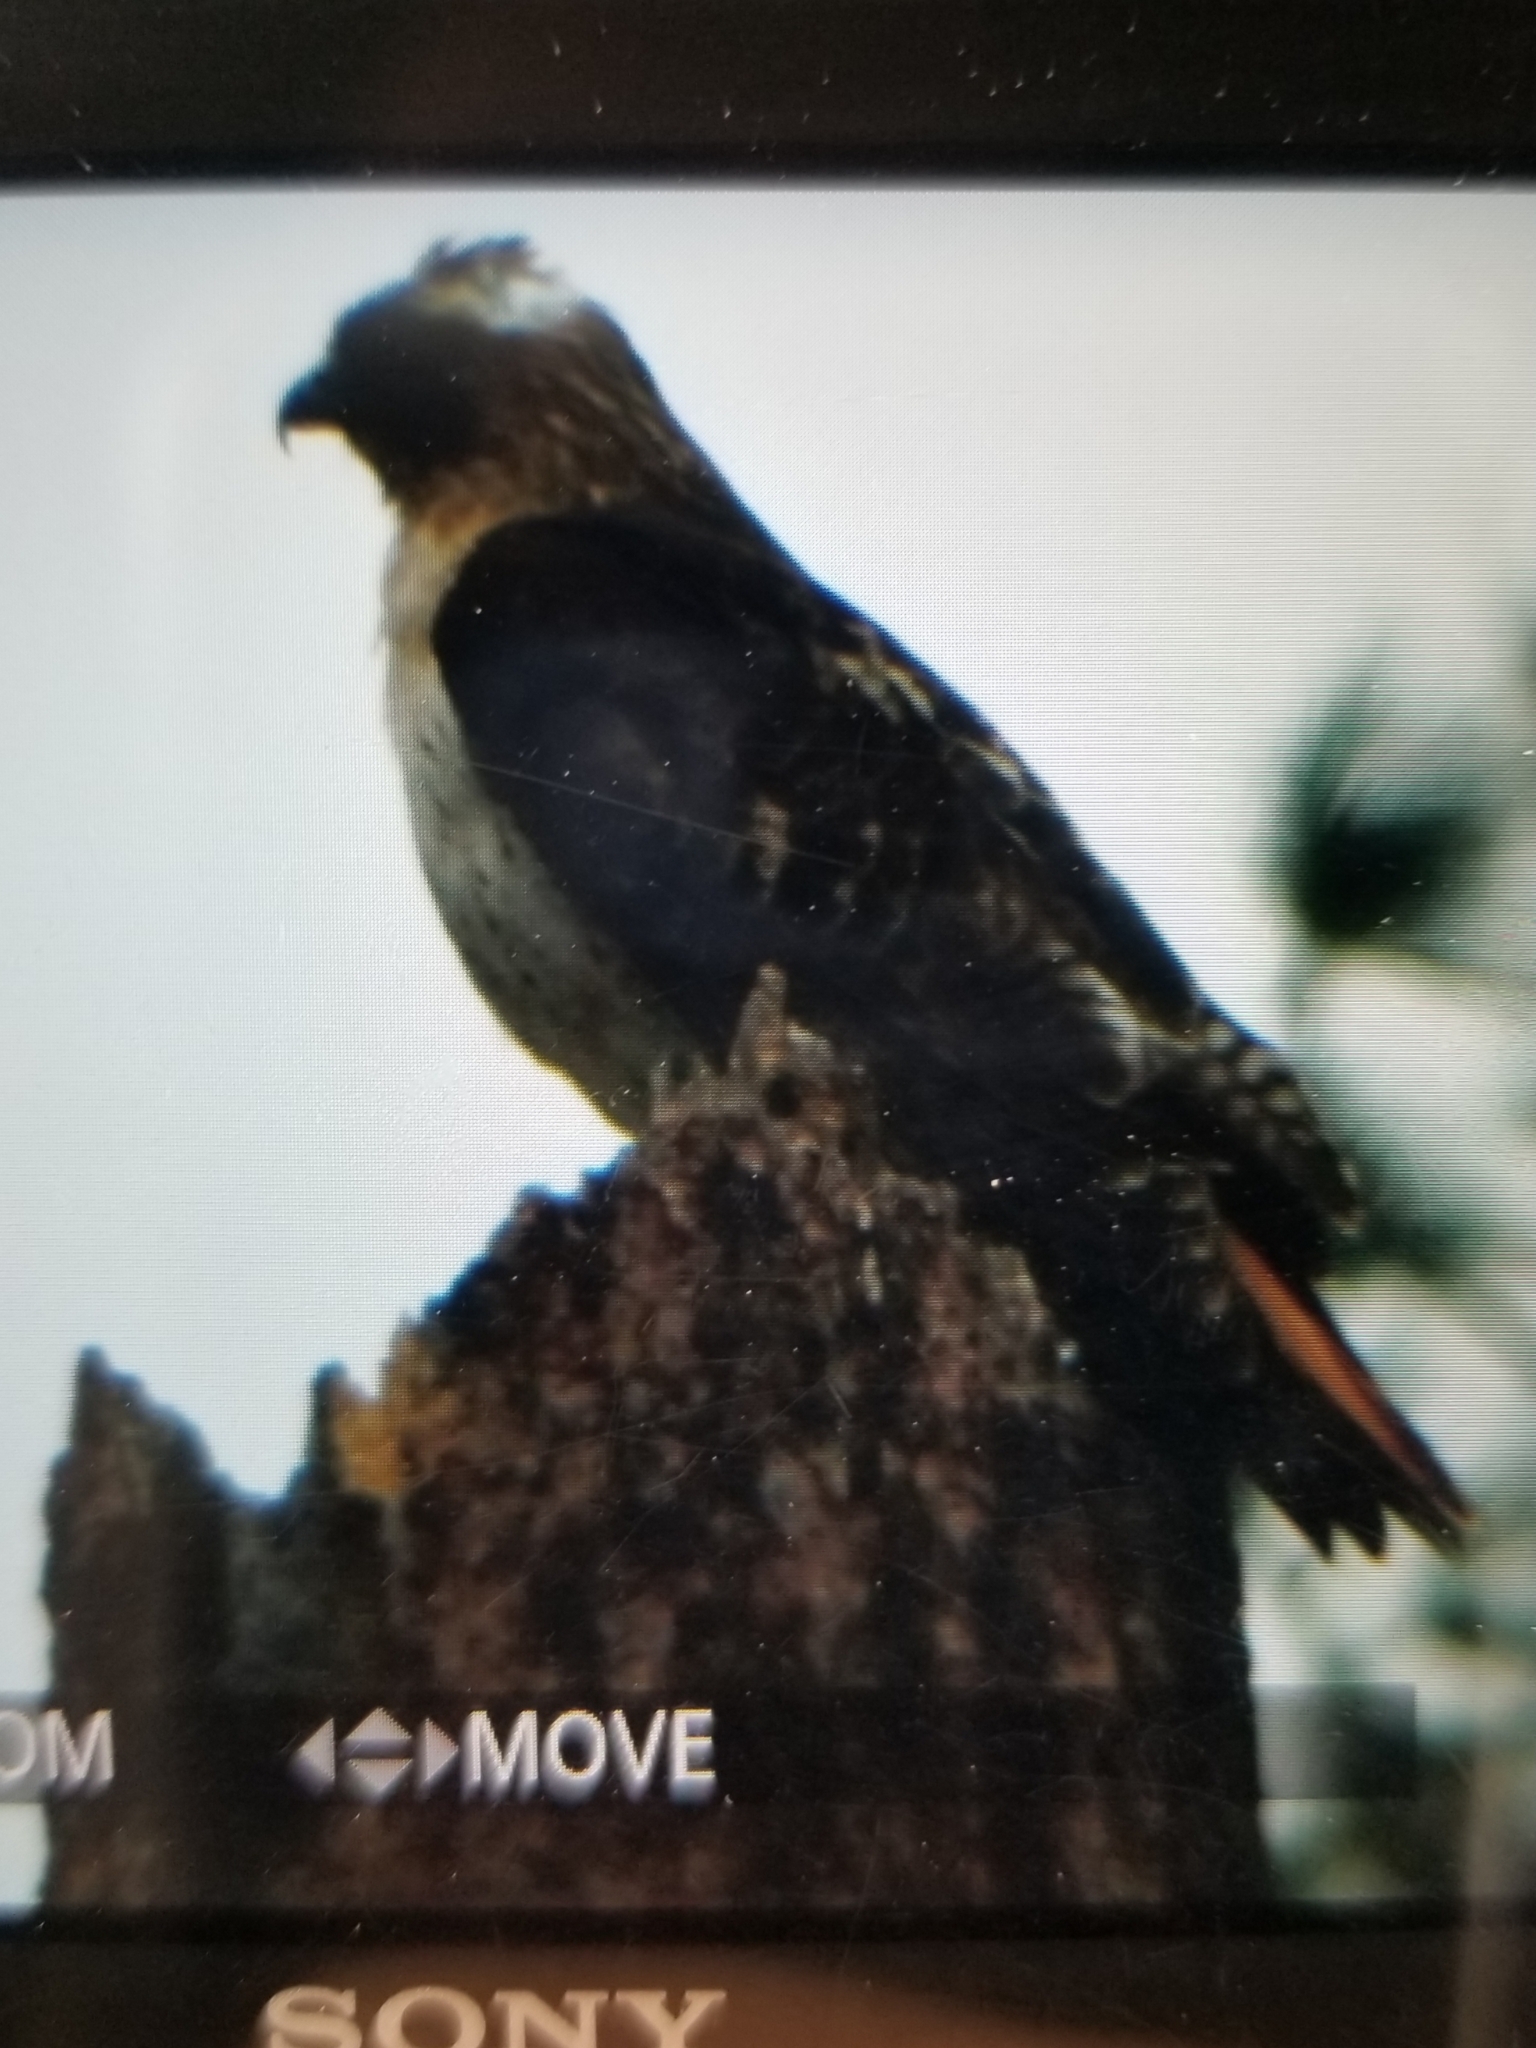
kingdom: Animalia
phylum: Chordata
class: Aves
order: Accipitriformes
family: Accipitridae
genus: Buteo
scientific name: Buteo jamaicensis
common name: Red-tailed hawk
